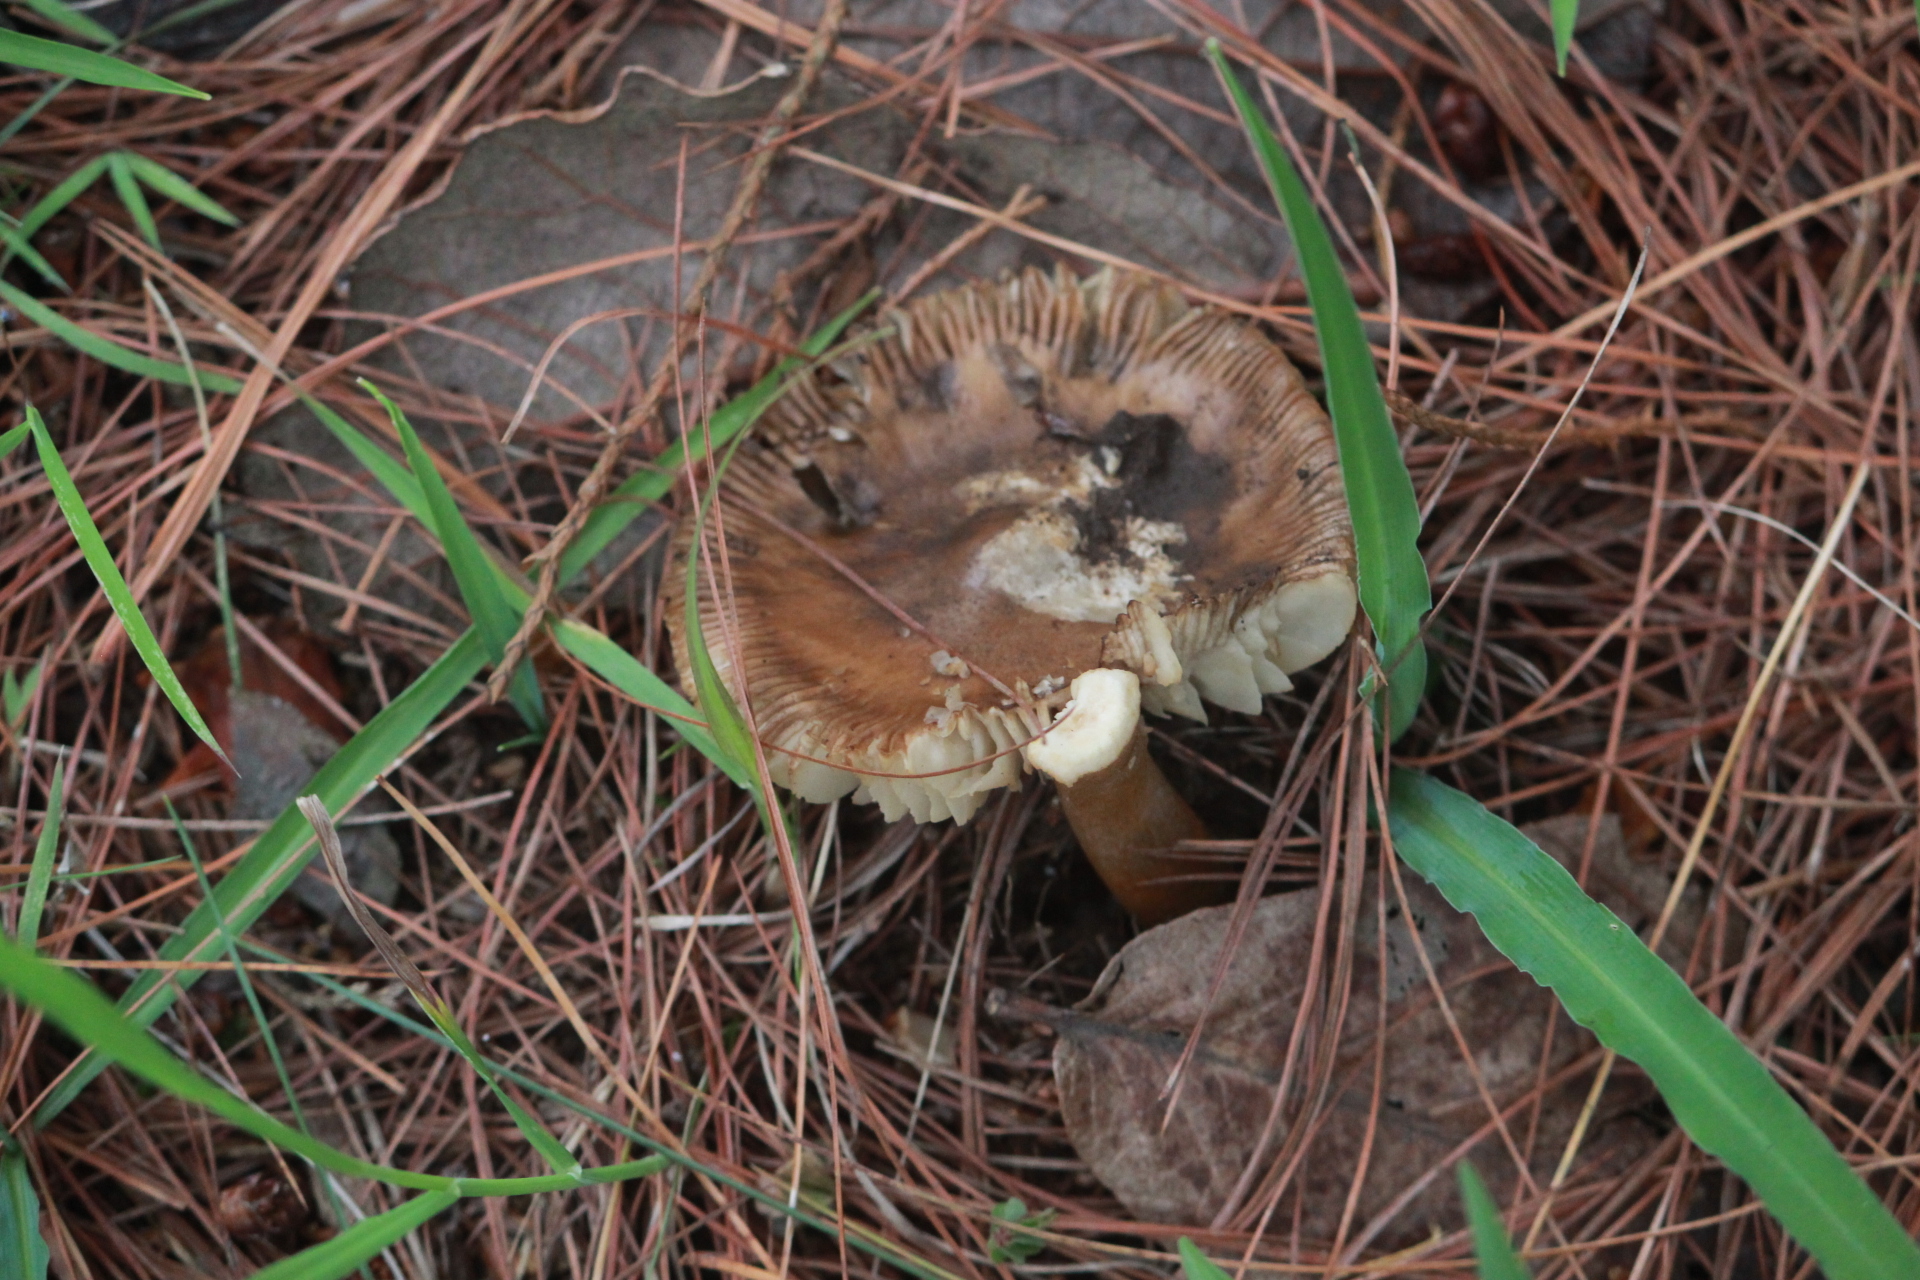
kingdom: Fungi
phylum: Basidiomycota
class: Agaricomycetes
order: Russulales
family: Russulaceae
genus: Russula
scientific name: Russula cerolens
